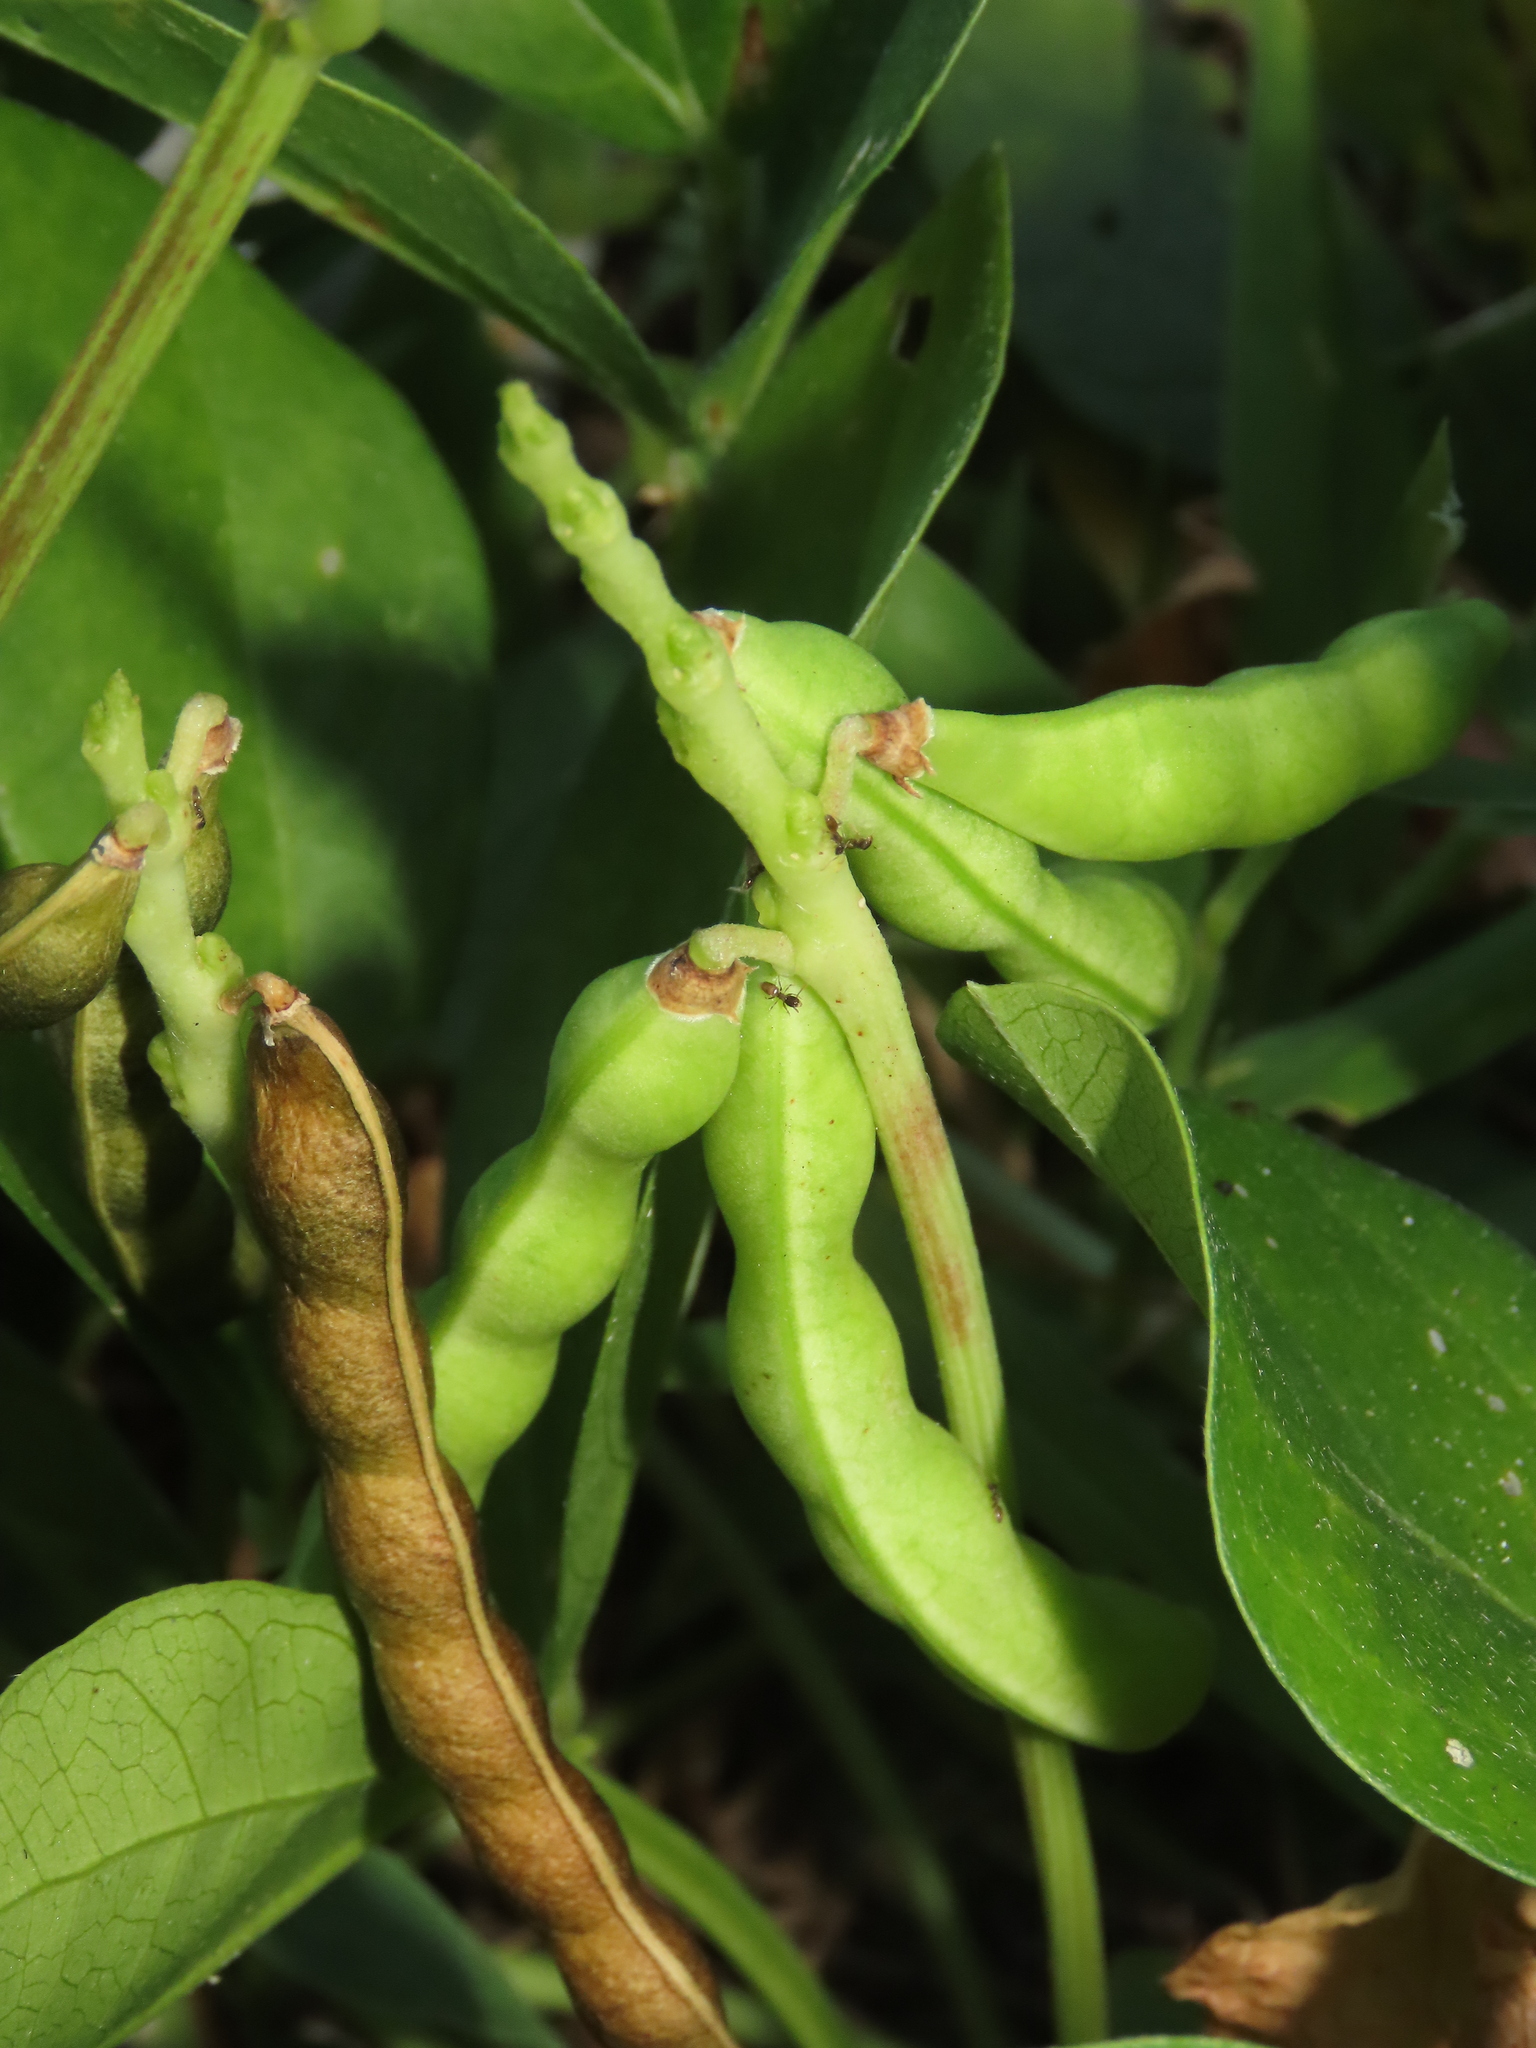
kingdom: Plantae
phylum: Tracheophyta
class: Magnoliopsida
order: Fabales
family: Fabaceae
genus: Vigna
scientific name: Vigna marina
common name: Dune-bean
